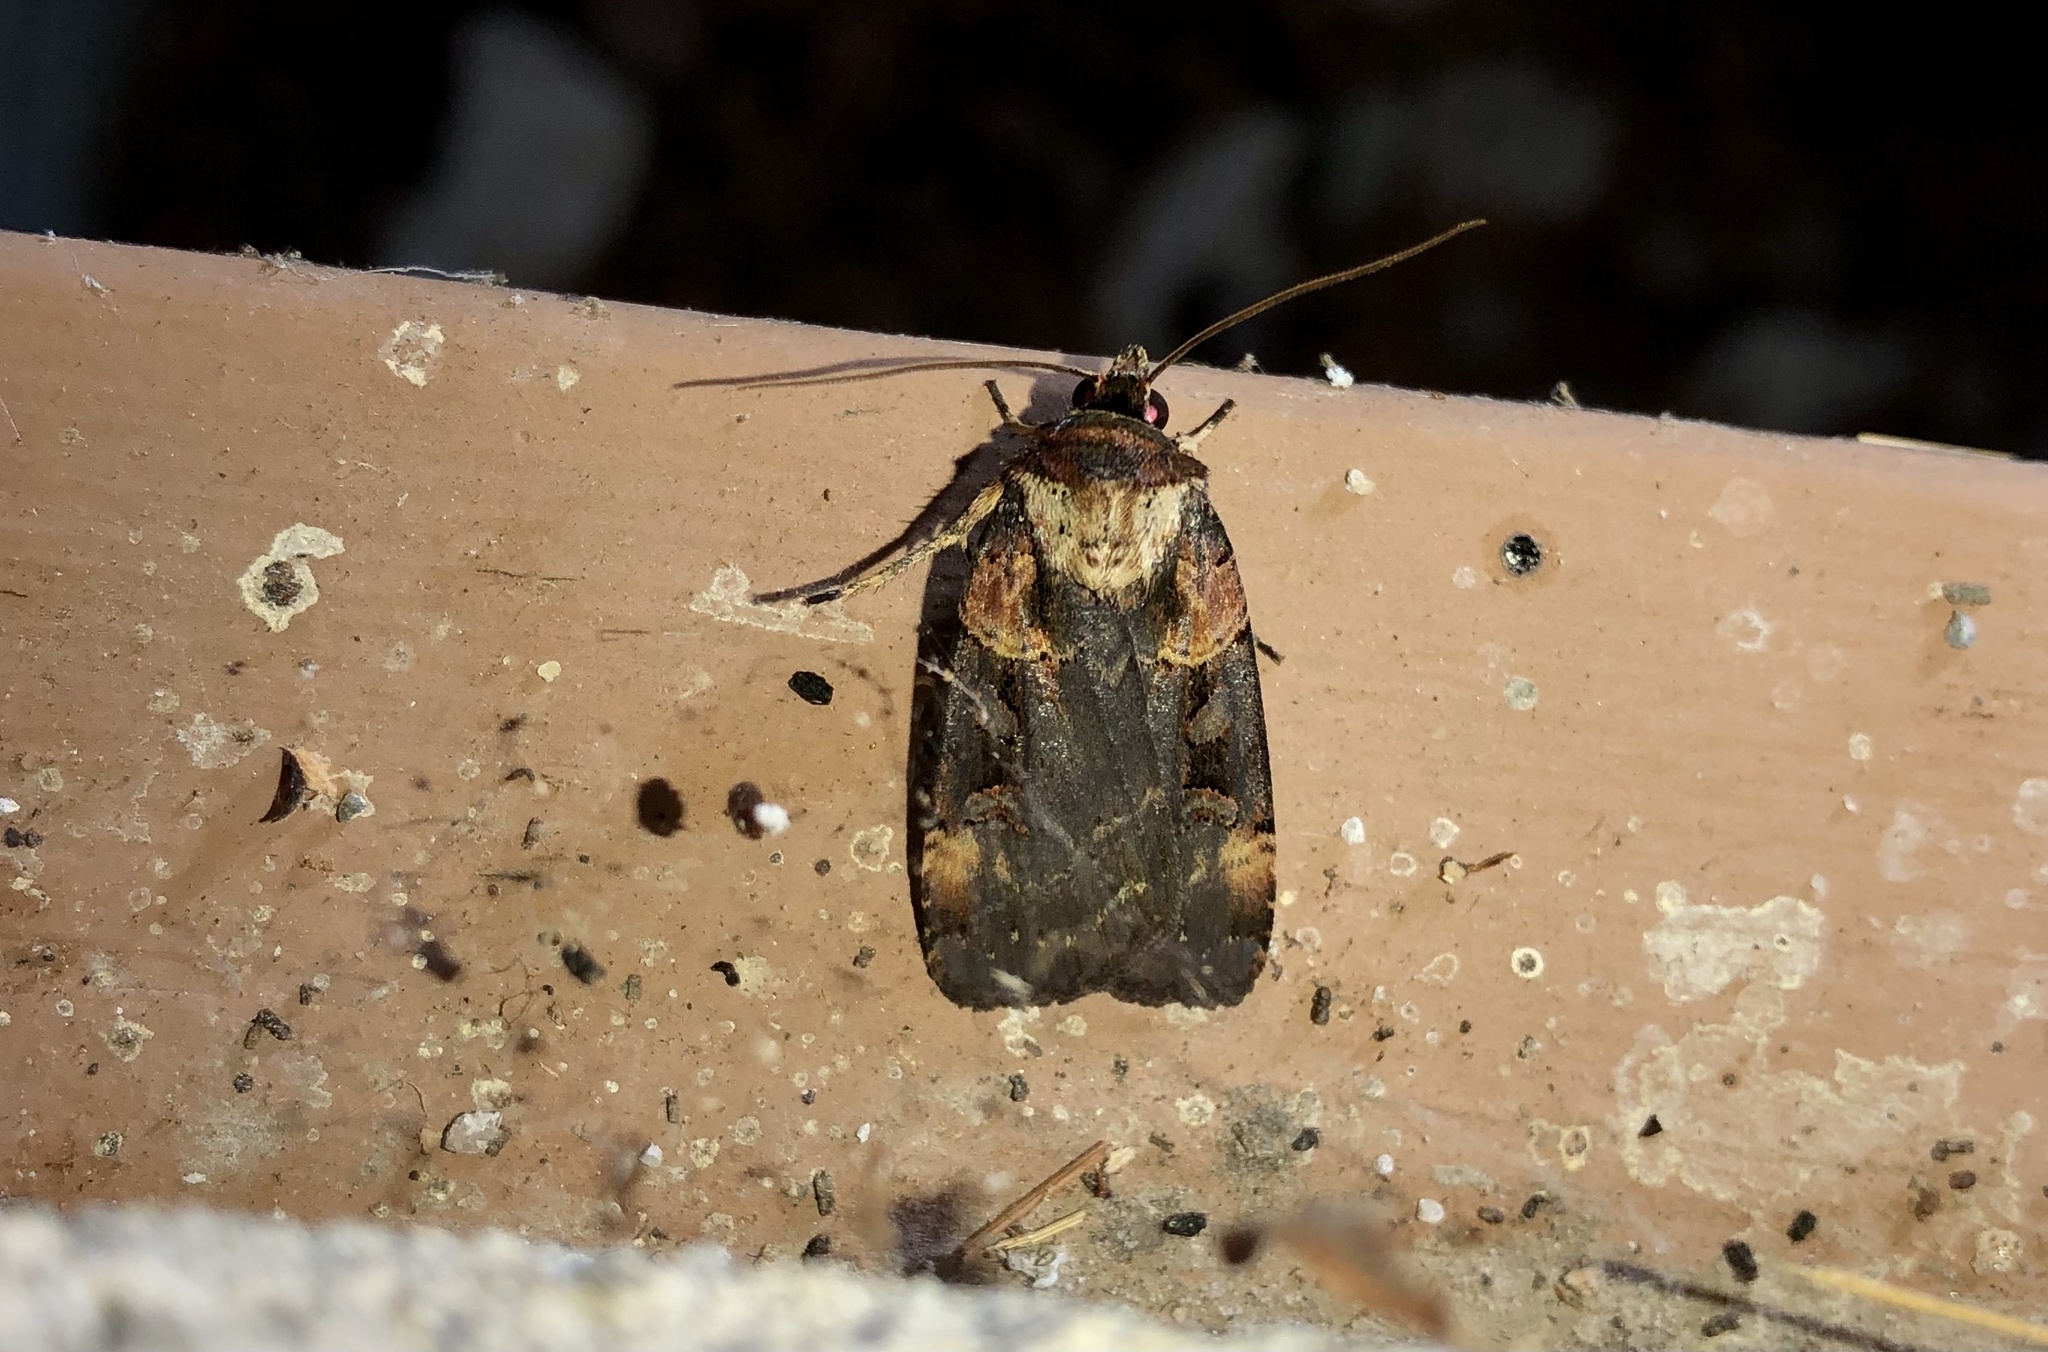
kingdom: Animalia
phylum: Arthropoda
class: Insecta
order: Lepidoptera
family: Noctuidae
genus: Pseudohermonassa
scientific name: Pseudohermonassa bicarnea
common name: Pink spotted dart
